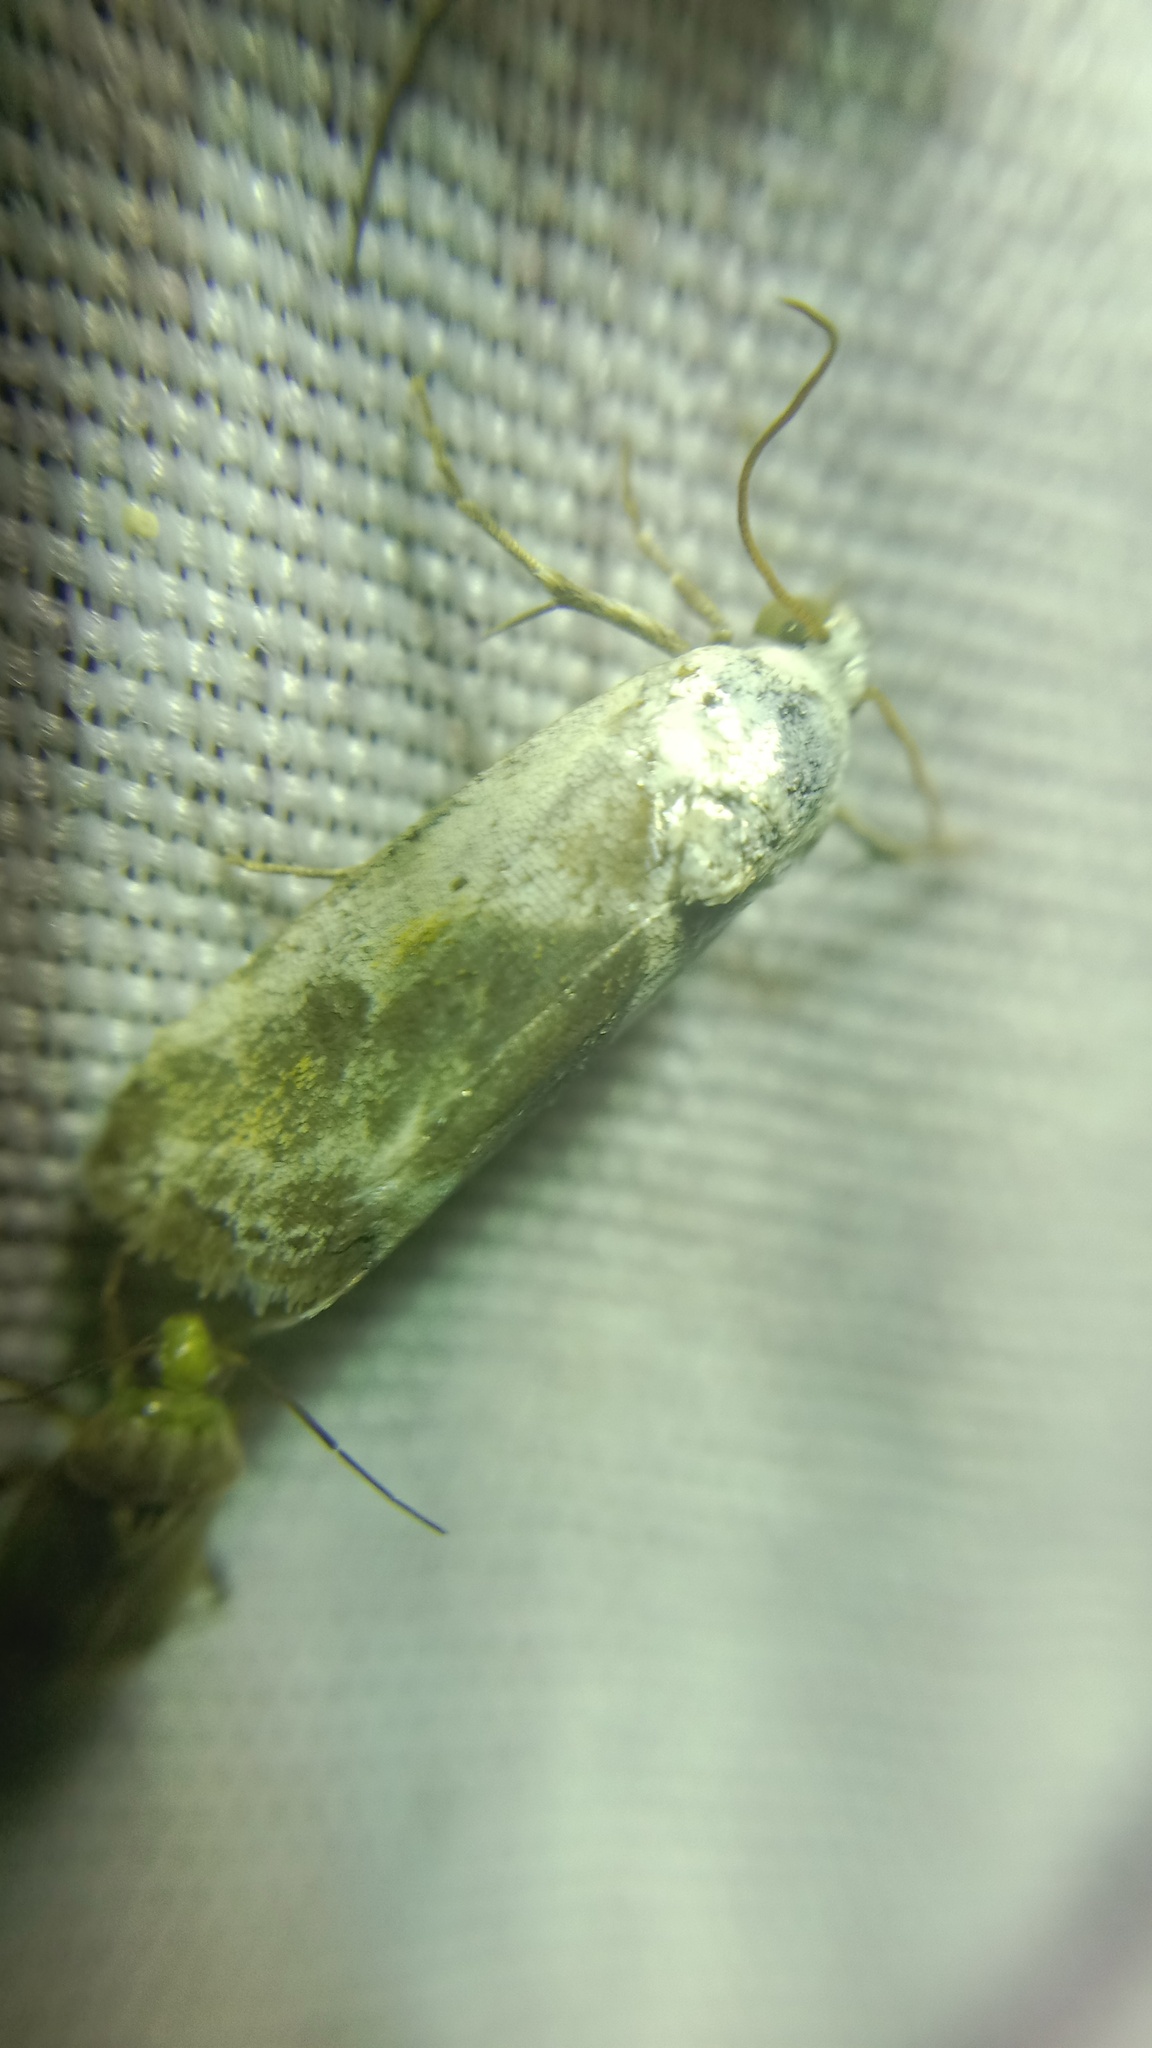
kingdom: Animalia
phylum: Arthropoda
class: Insecta
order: Lepidoptera
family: Noctuidae
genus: Acontia
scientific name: Acontia candefacta
